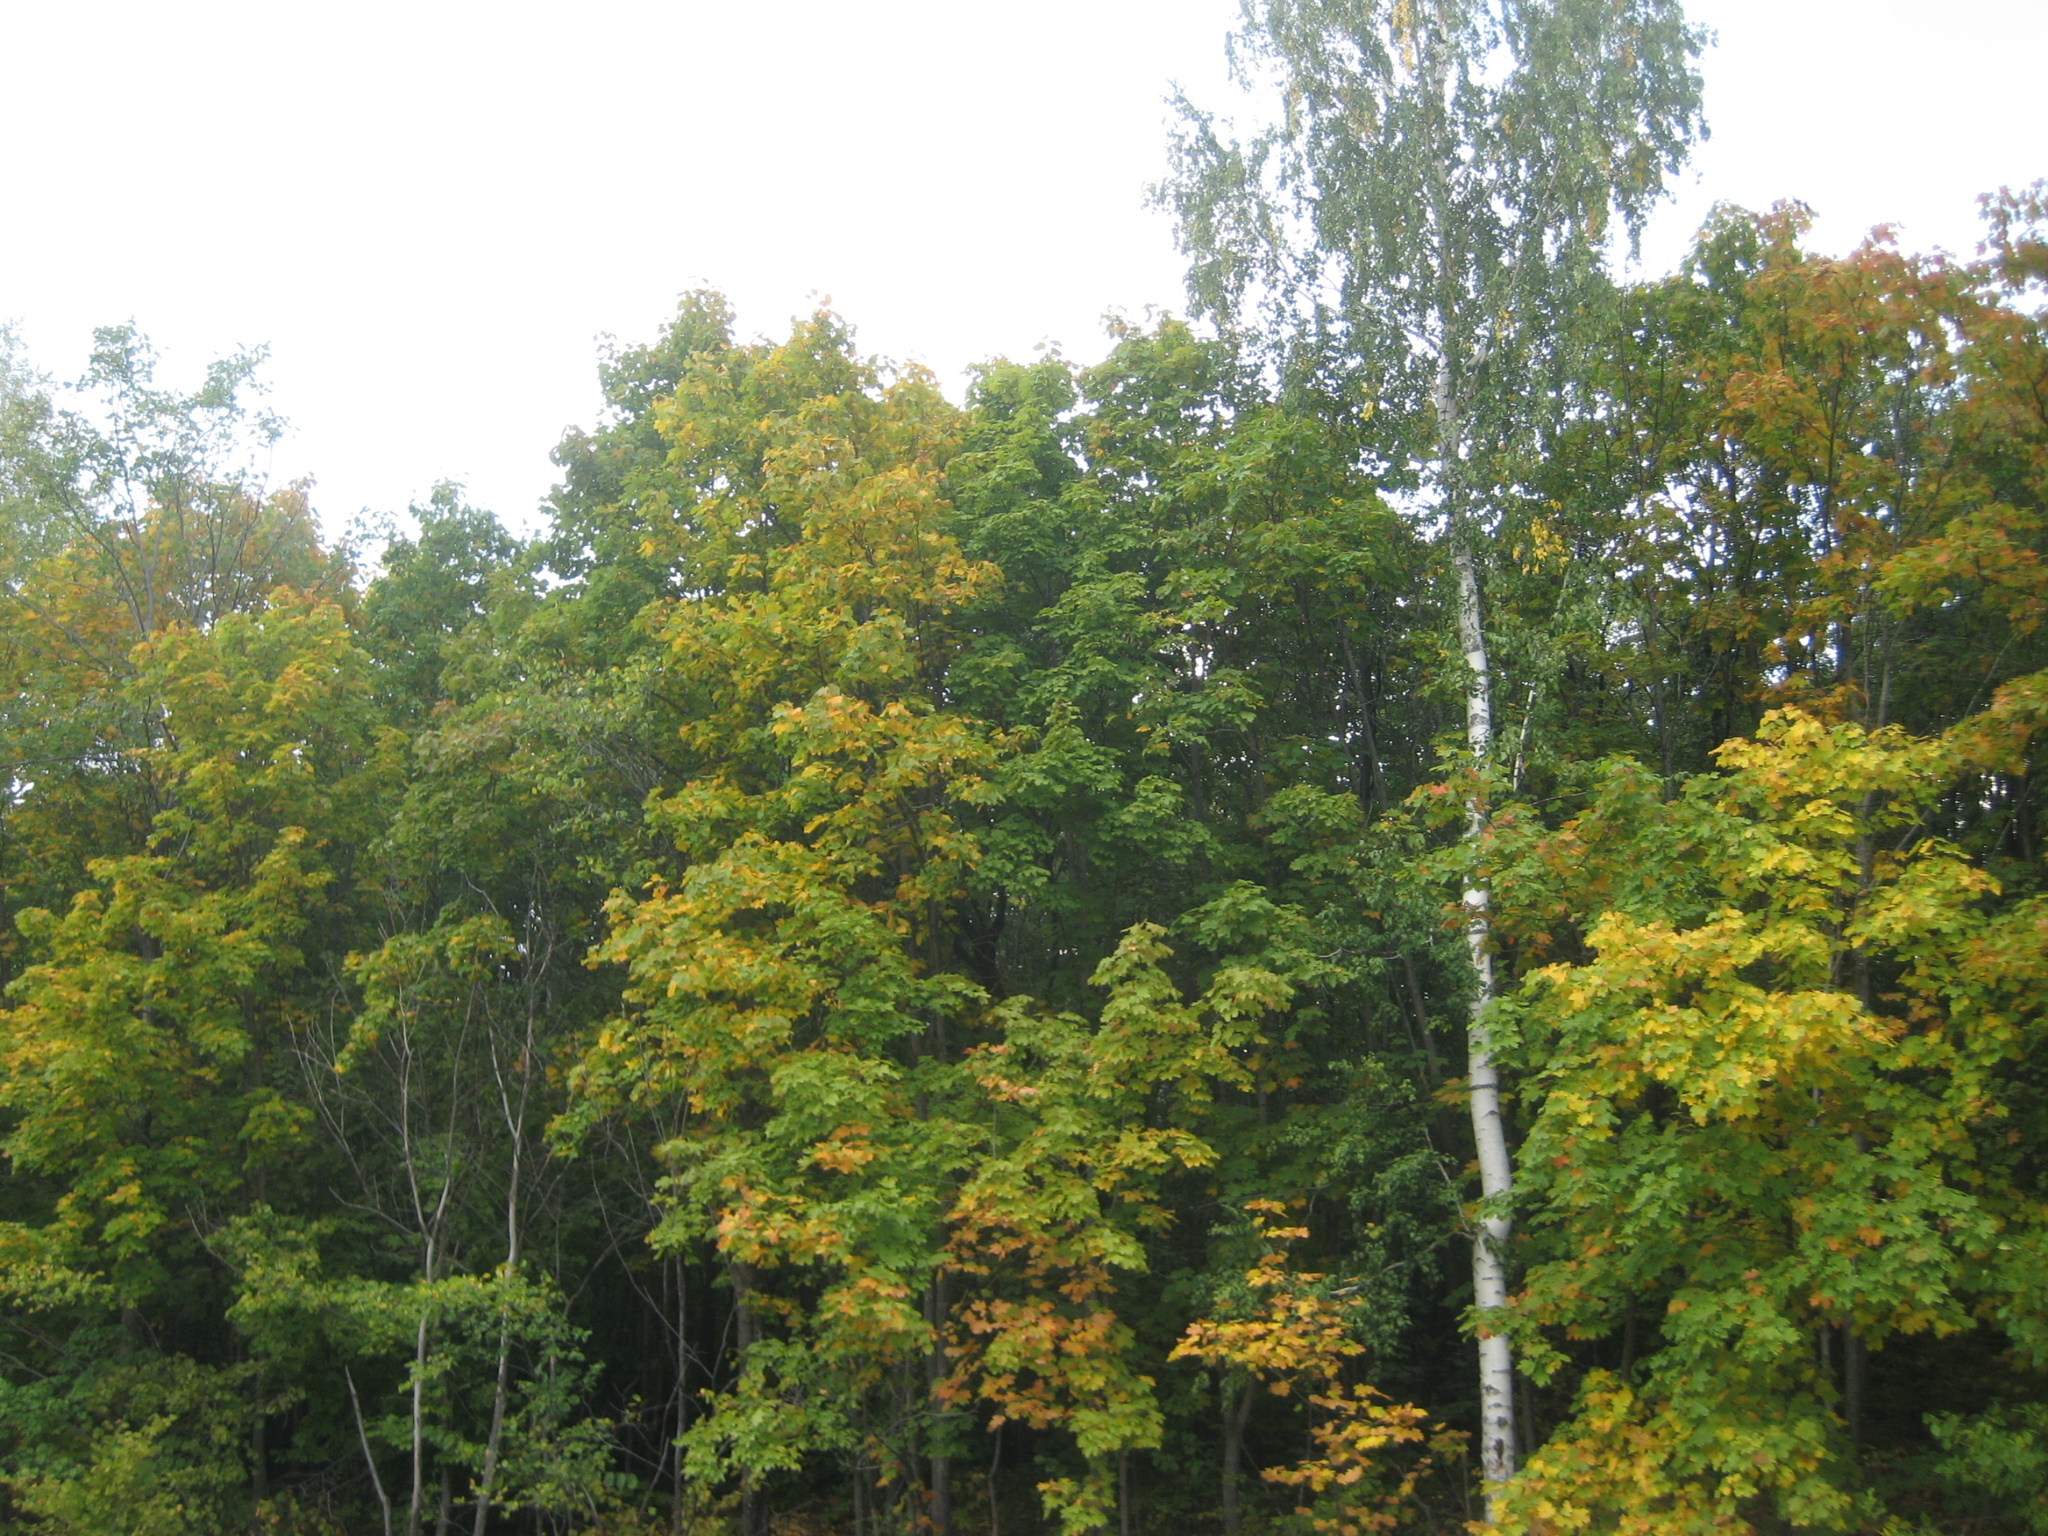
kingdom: Plantae
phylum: Tracheophyta
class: Magnoliopsida
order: Fagales
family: Betulaceae
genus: Betula
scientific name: Betula pendula
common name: Silver birch
